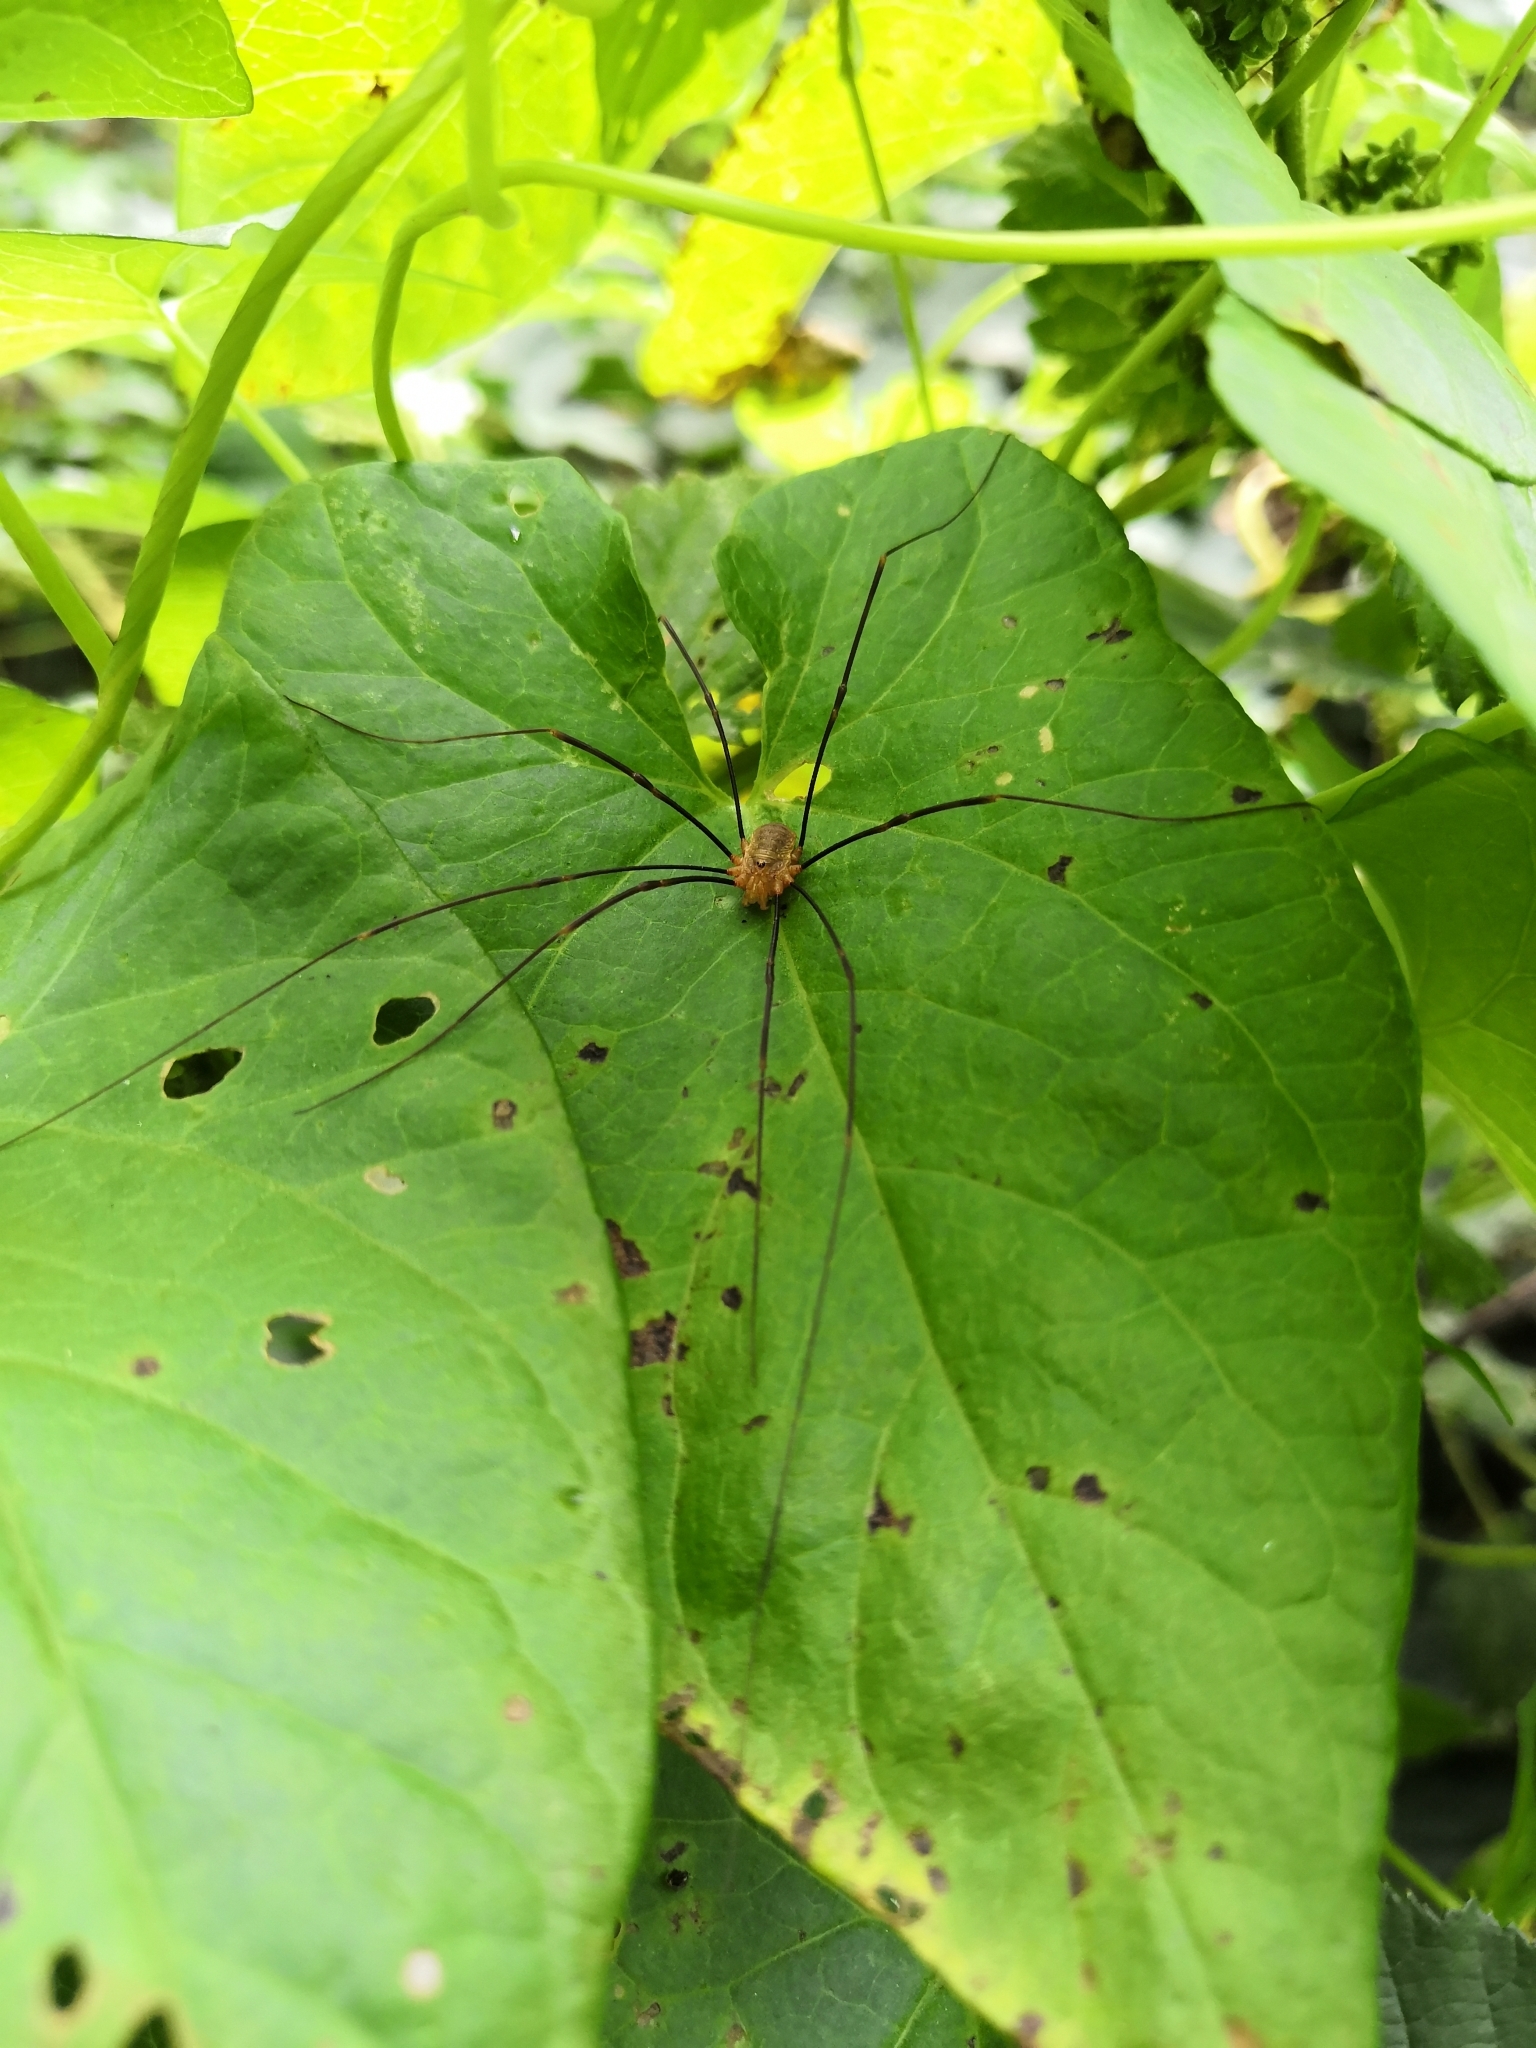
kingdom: Animalia
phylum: Arthropoda
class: Arachnida
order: Opiliones
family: Phalangiidae
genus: Opilio
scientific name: Opilio canestrinii
